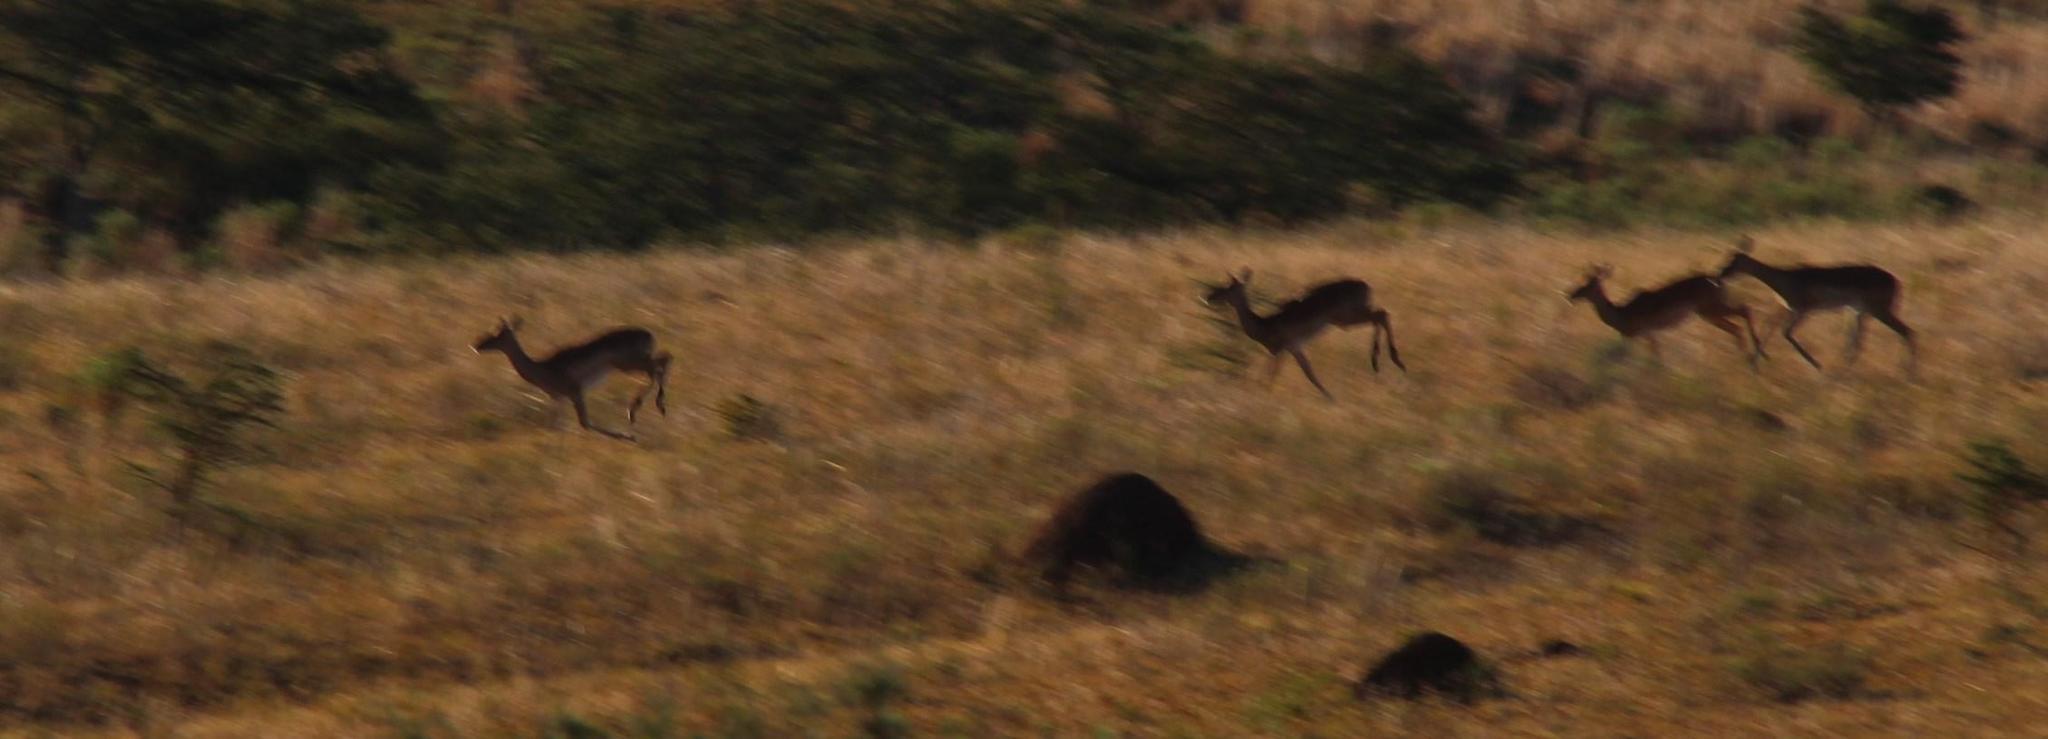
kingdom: Animalia
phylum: Chordata
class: Mammalia
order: Artiodactyla
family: Bovidae
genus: Aepyceros
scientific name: Aepyceros melampus
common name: Impala
